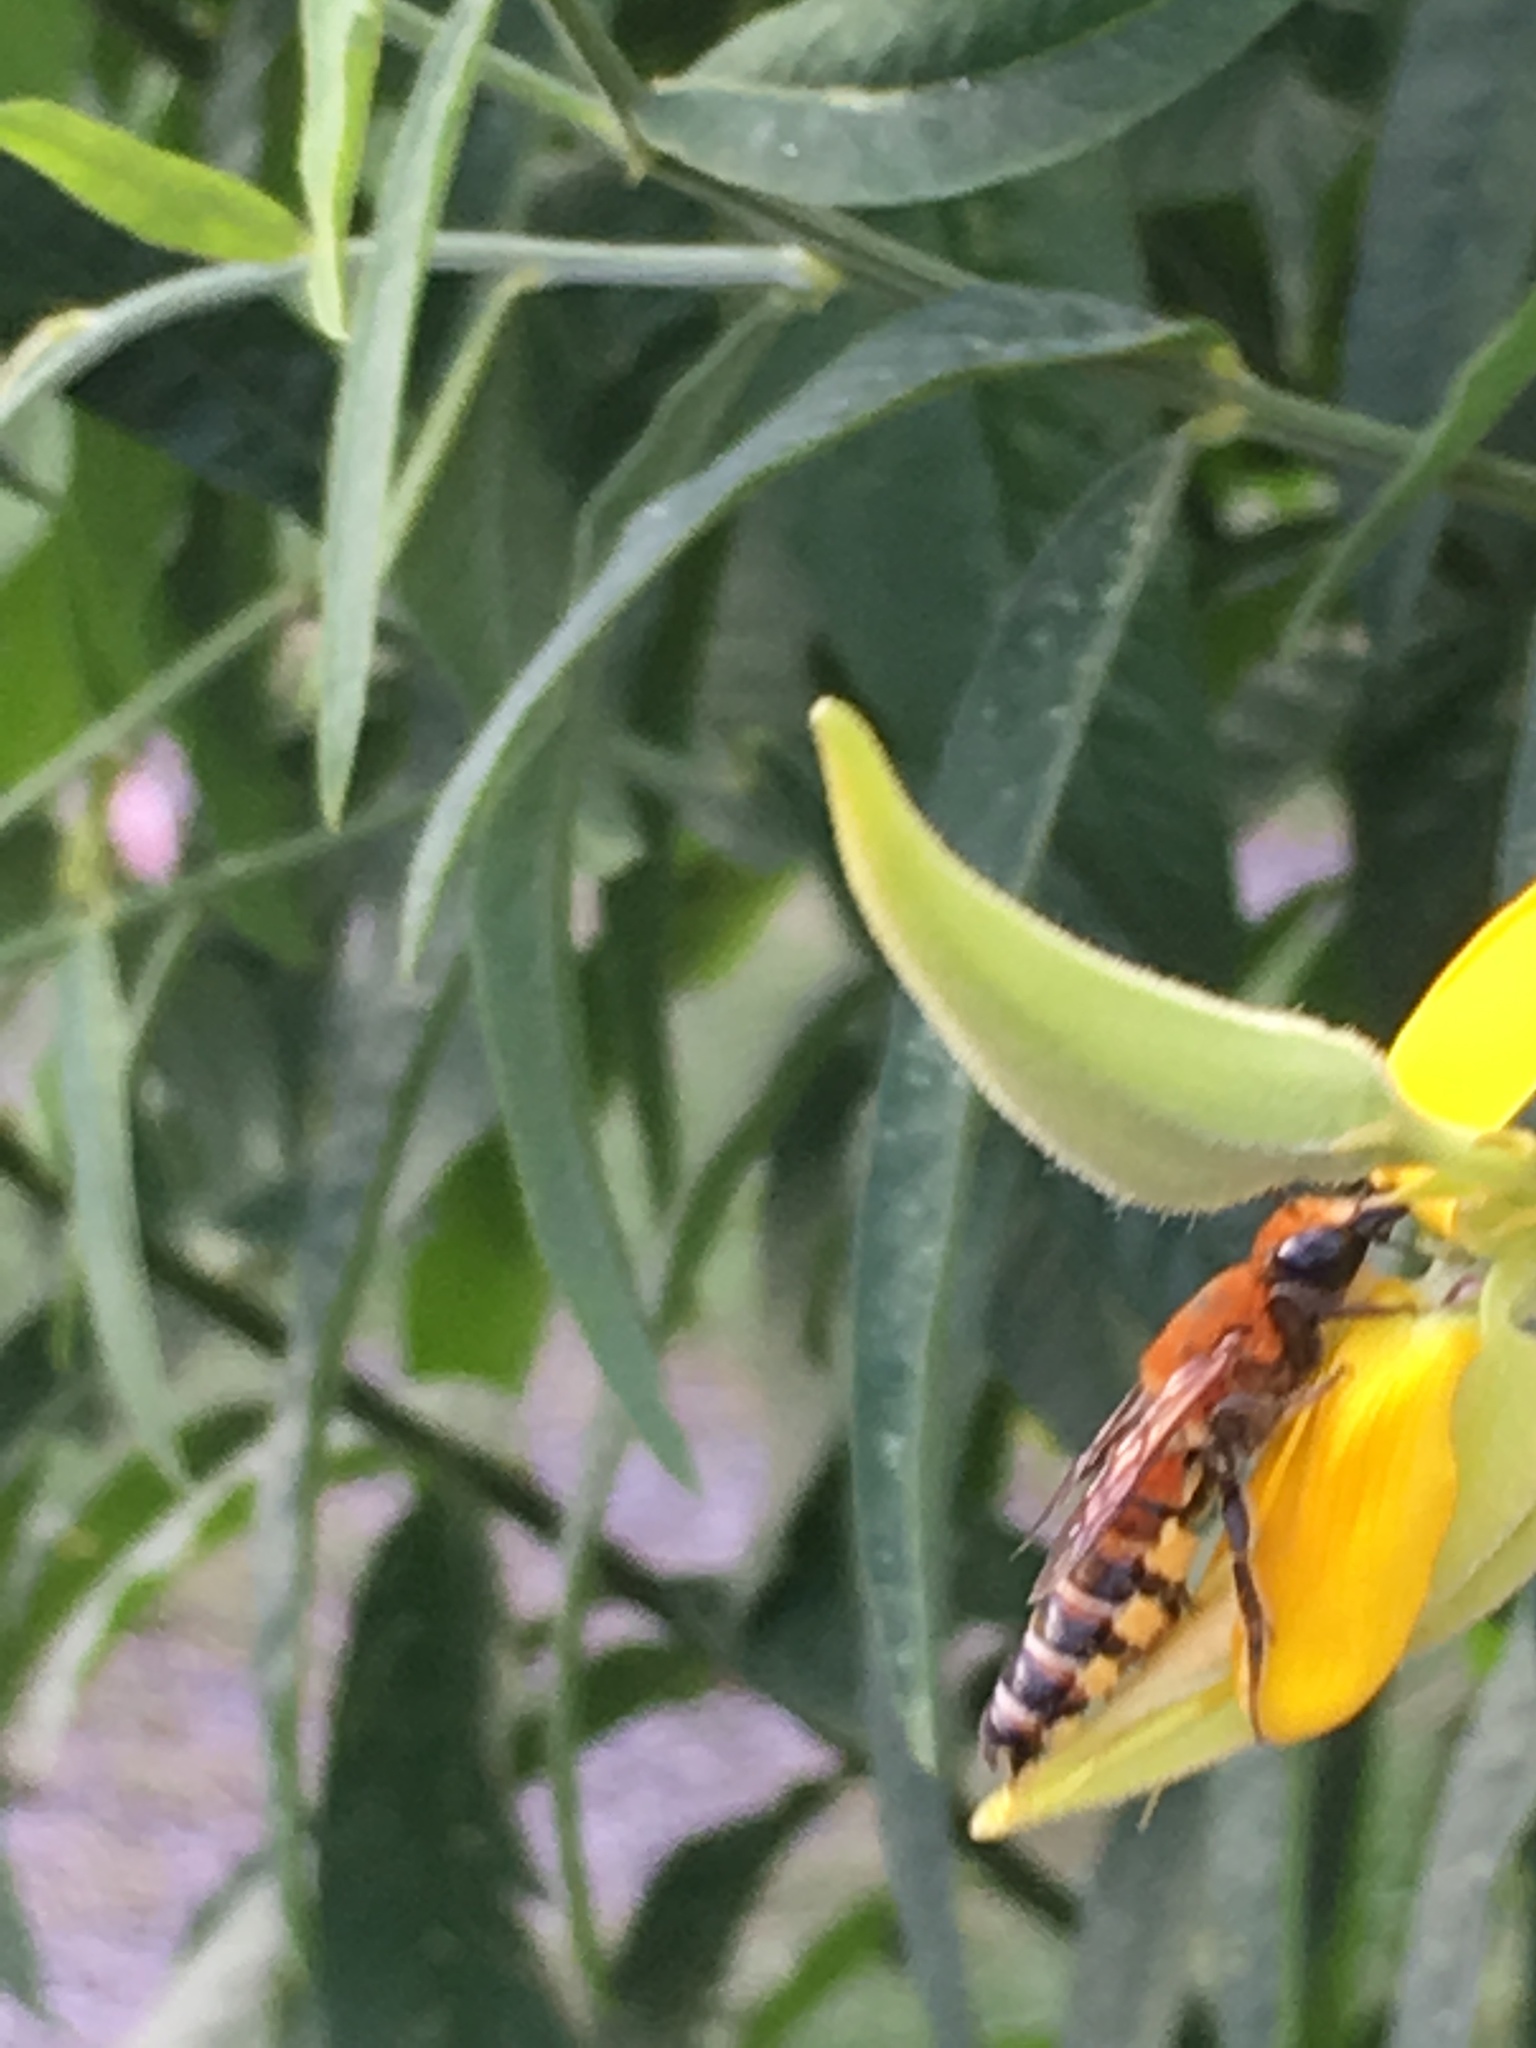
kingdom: Animalia
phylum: Arthropoda
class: Insecta
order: Hymenoptera
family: Megachilidae
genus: Megachile
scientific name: Megachile lanata
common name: Wooly wall bee
